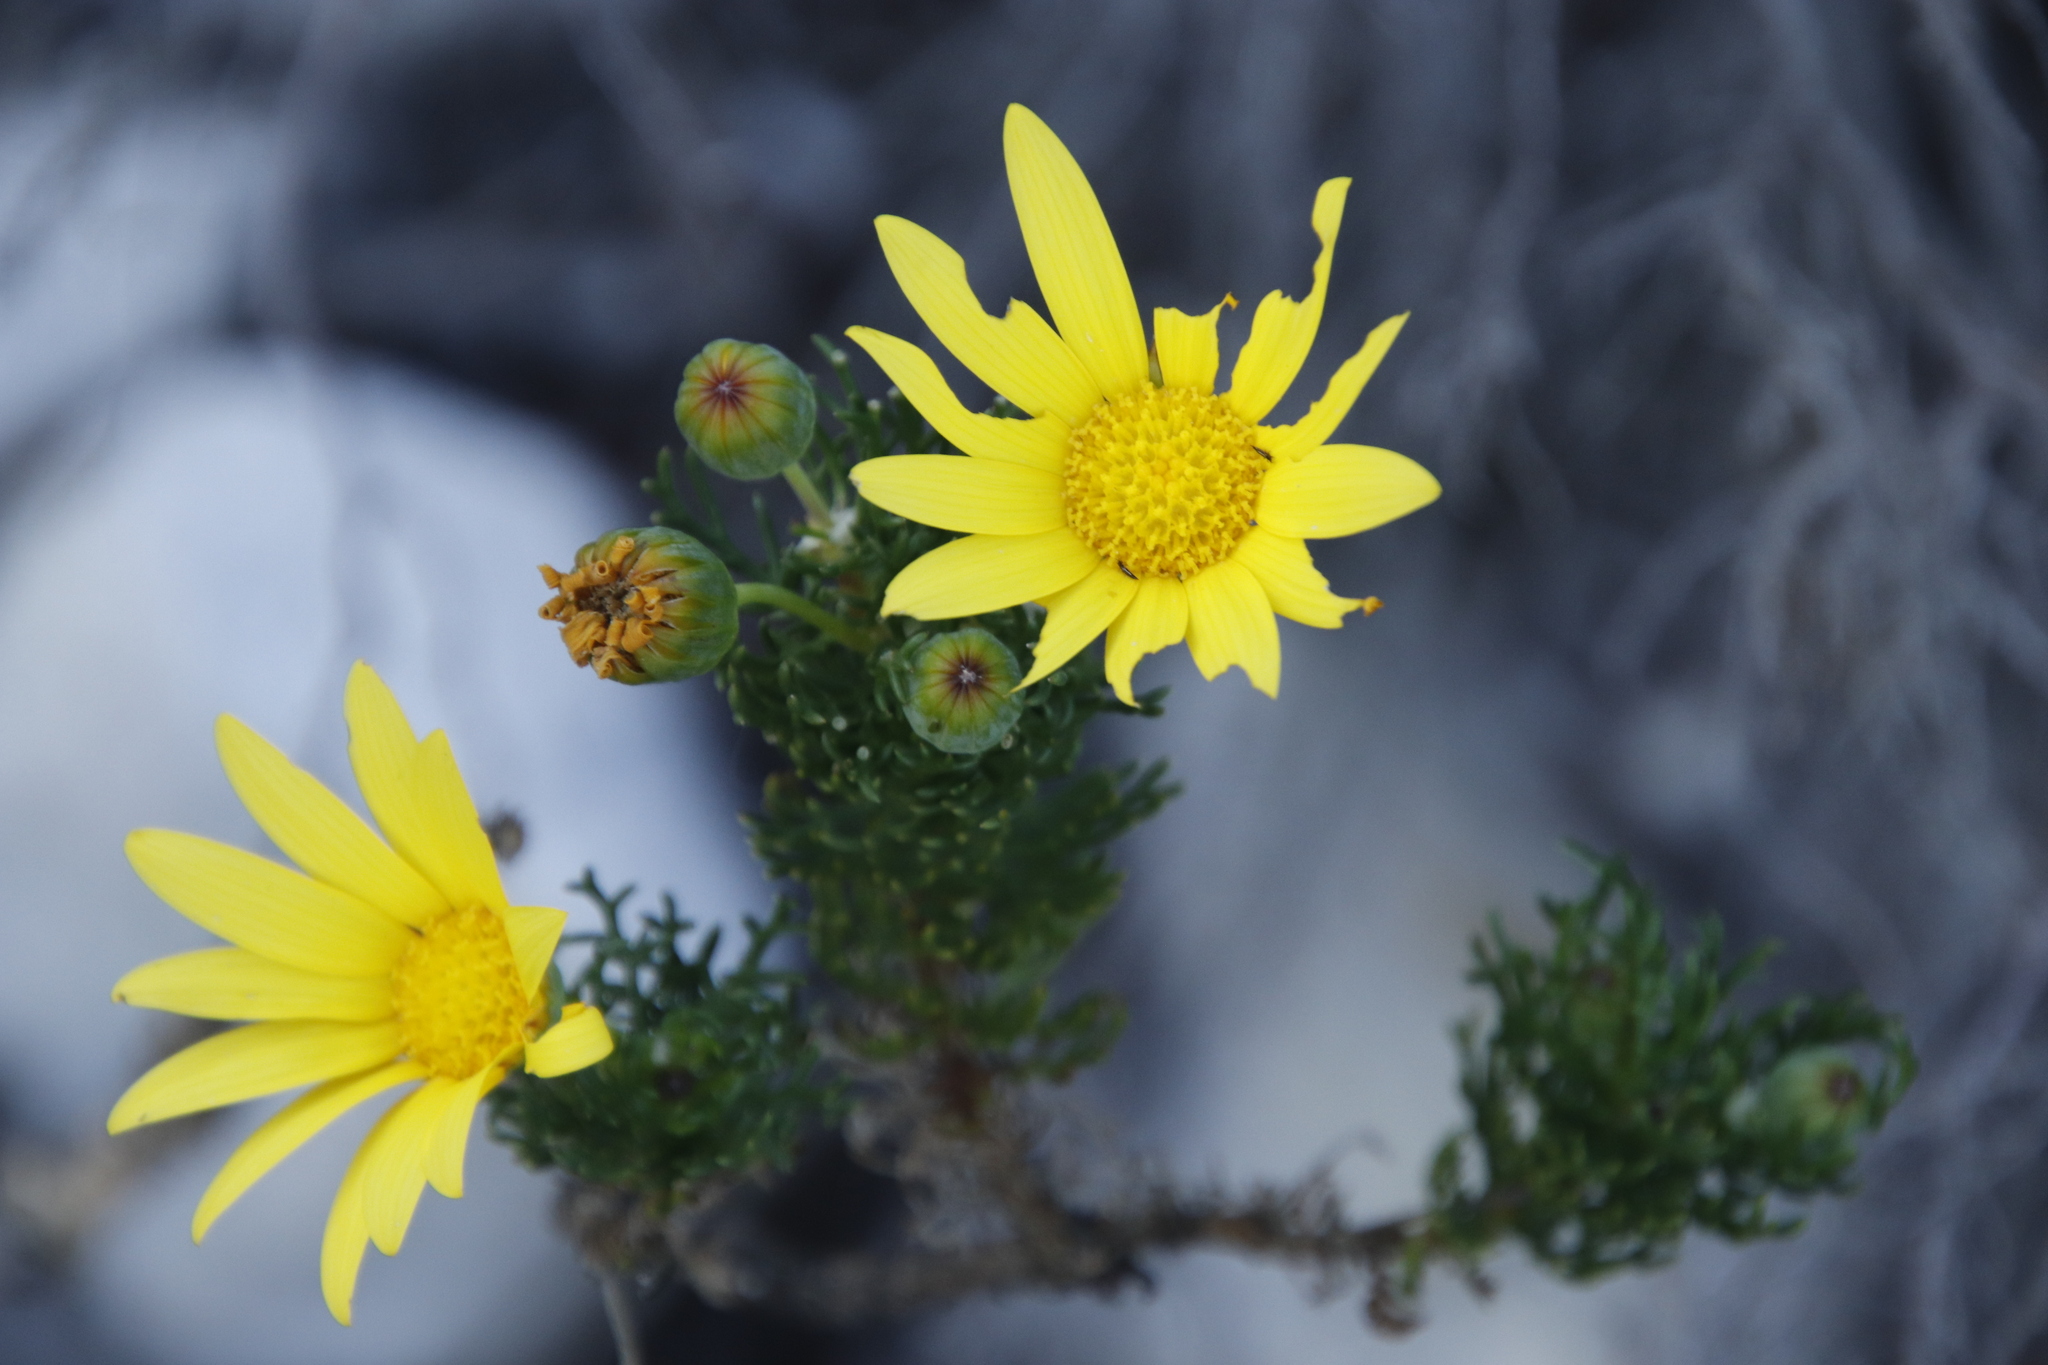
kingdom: Plantae
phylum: Tracheophyta
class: Magnoliopsida
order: Asterales
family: Asteraceae
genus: Euryops
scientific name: Euryops abrotanifolius
